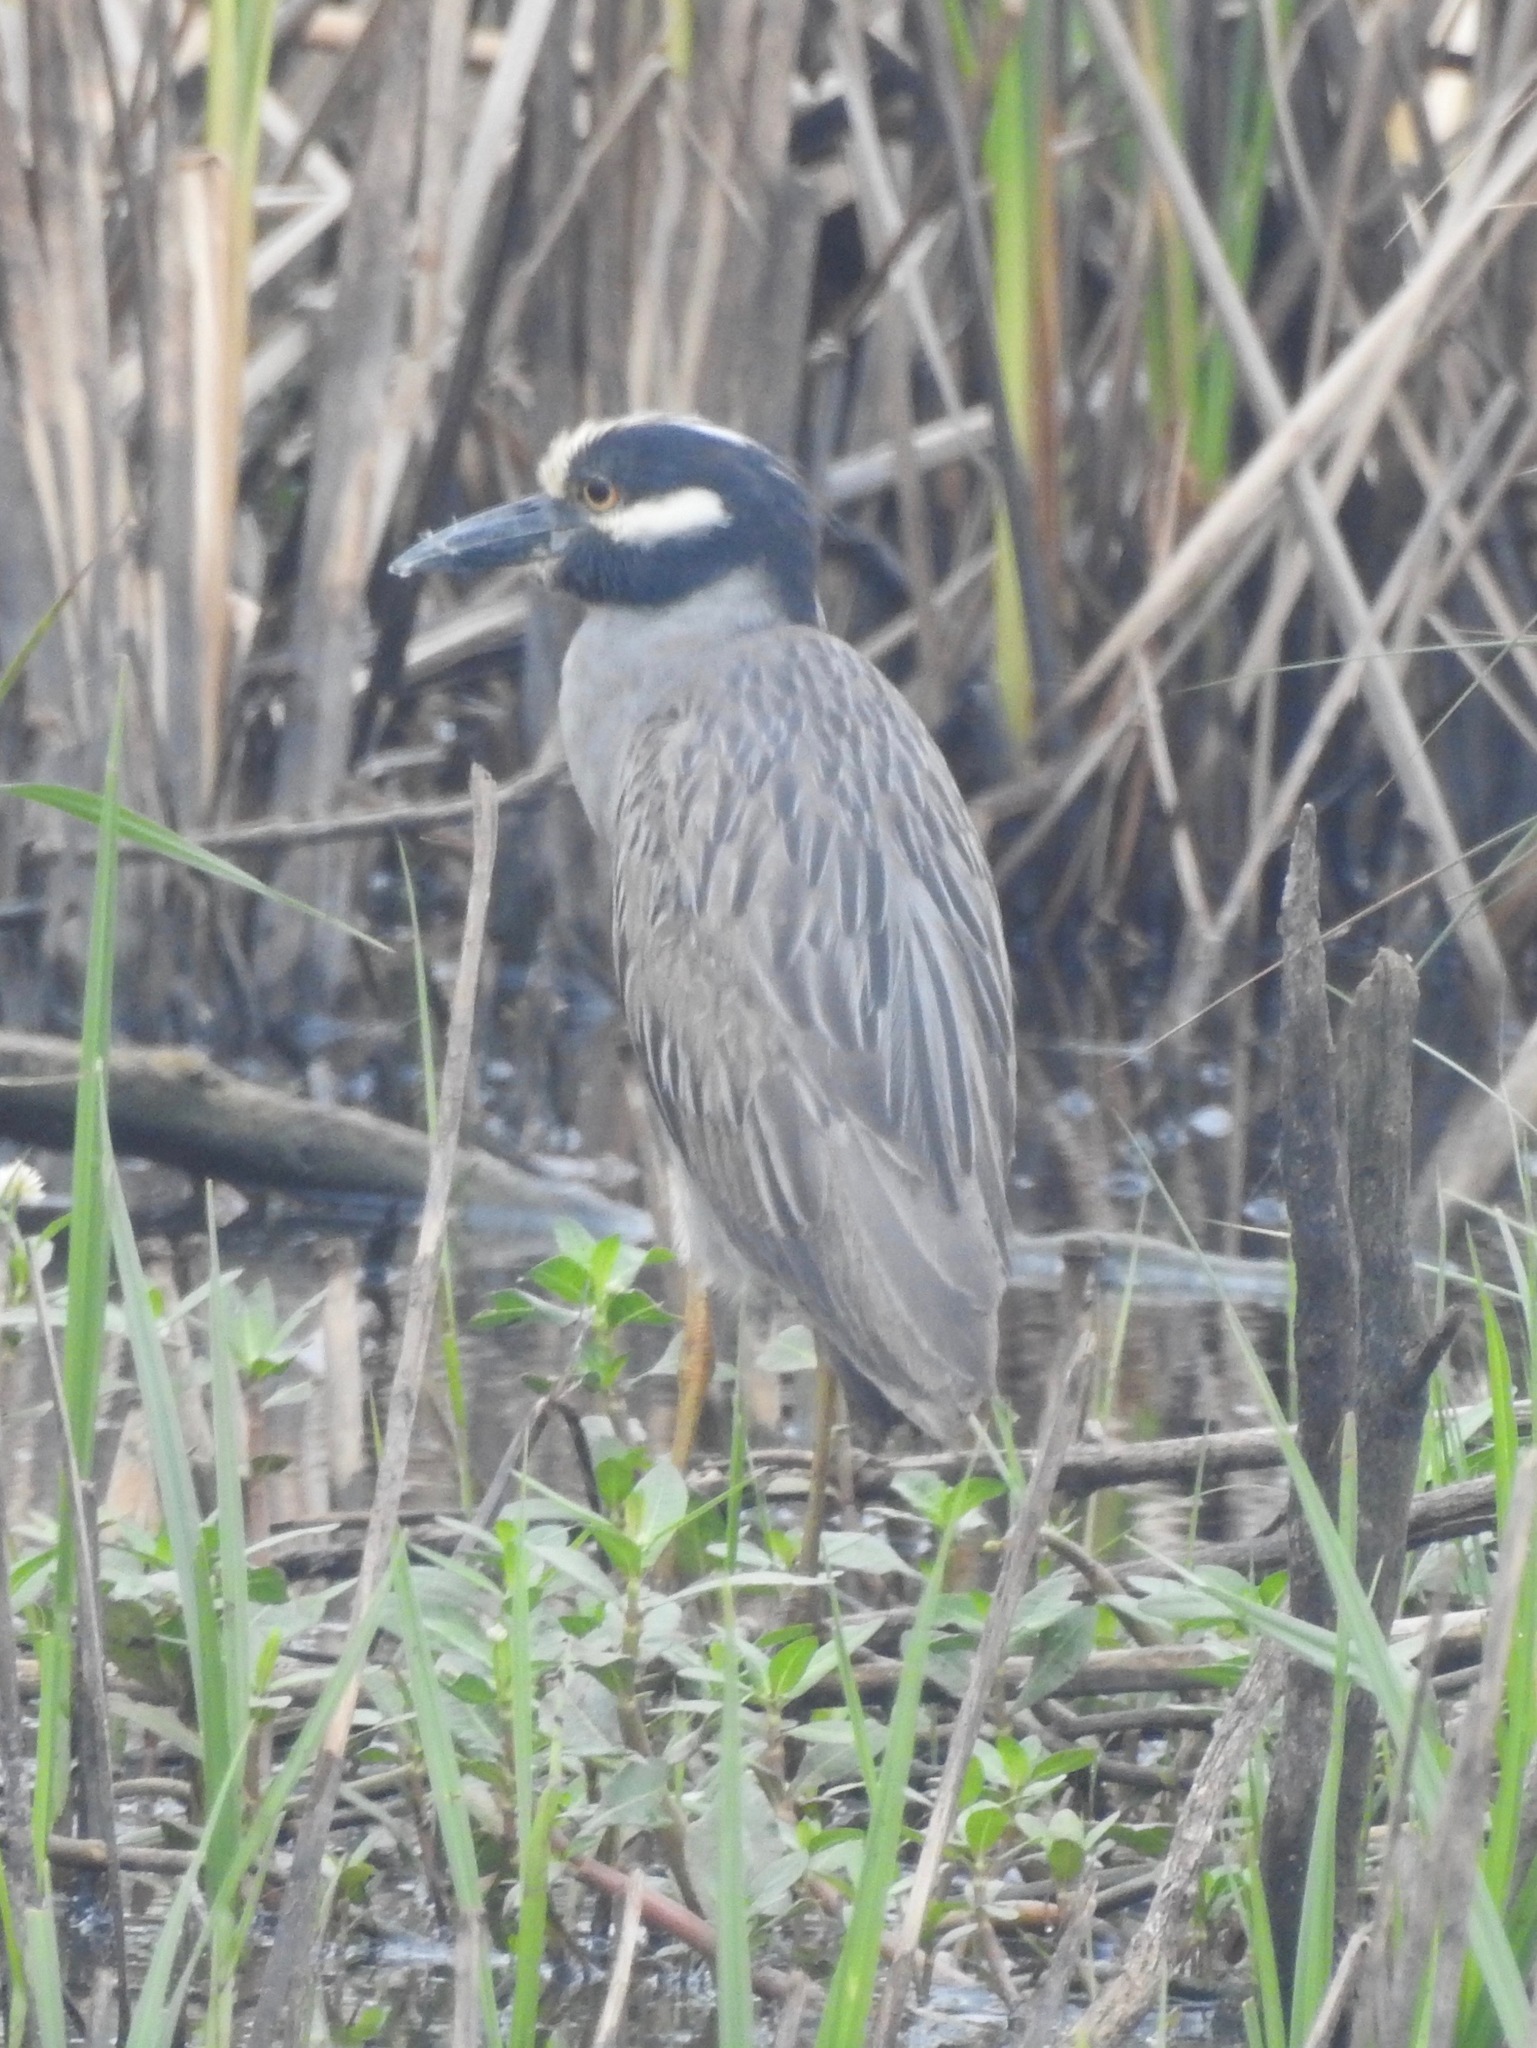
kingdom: Animalia
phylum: Chordata
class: Aves
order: Pelecaniformes
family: Ardeidae
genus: Nyctanassa
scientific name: Nyctanassa violacea
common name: Yellow-crowned night heron
